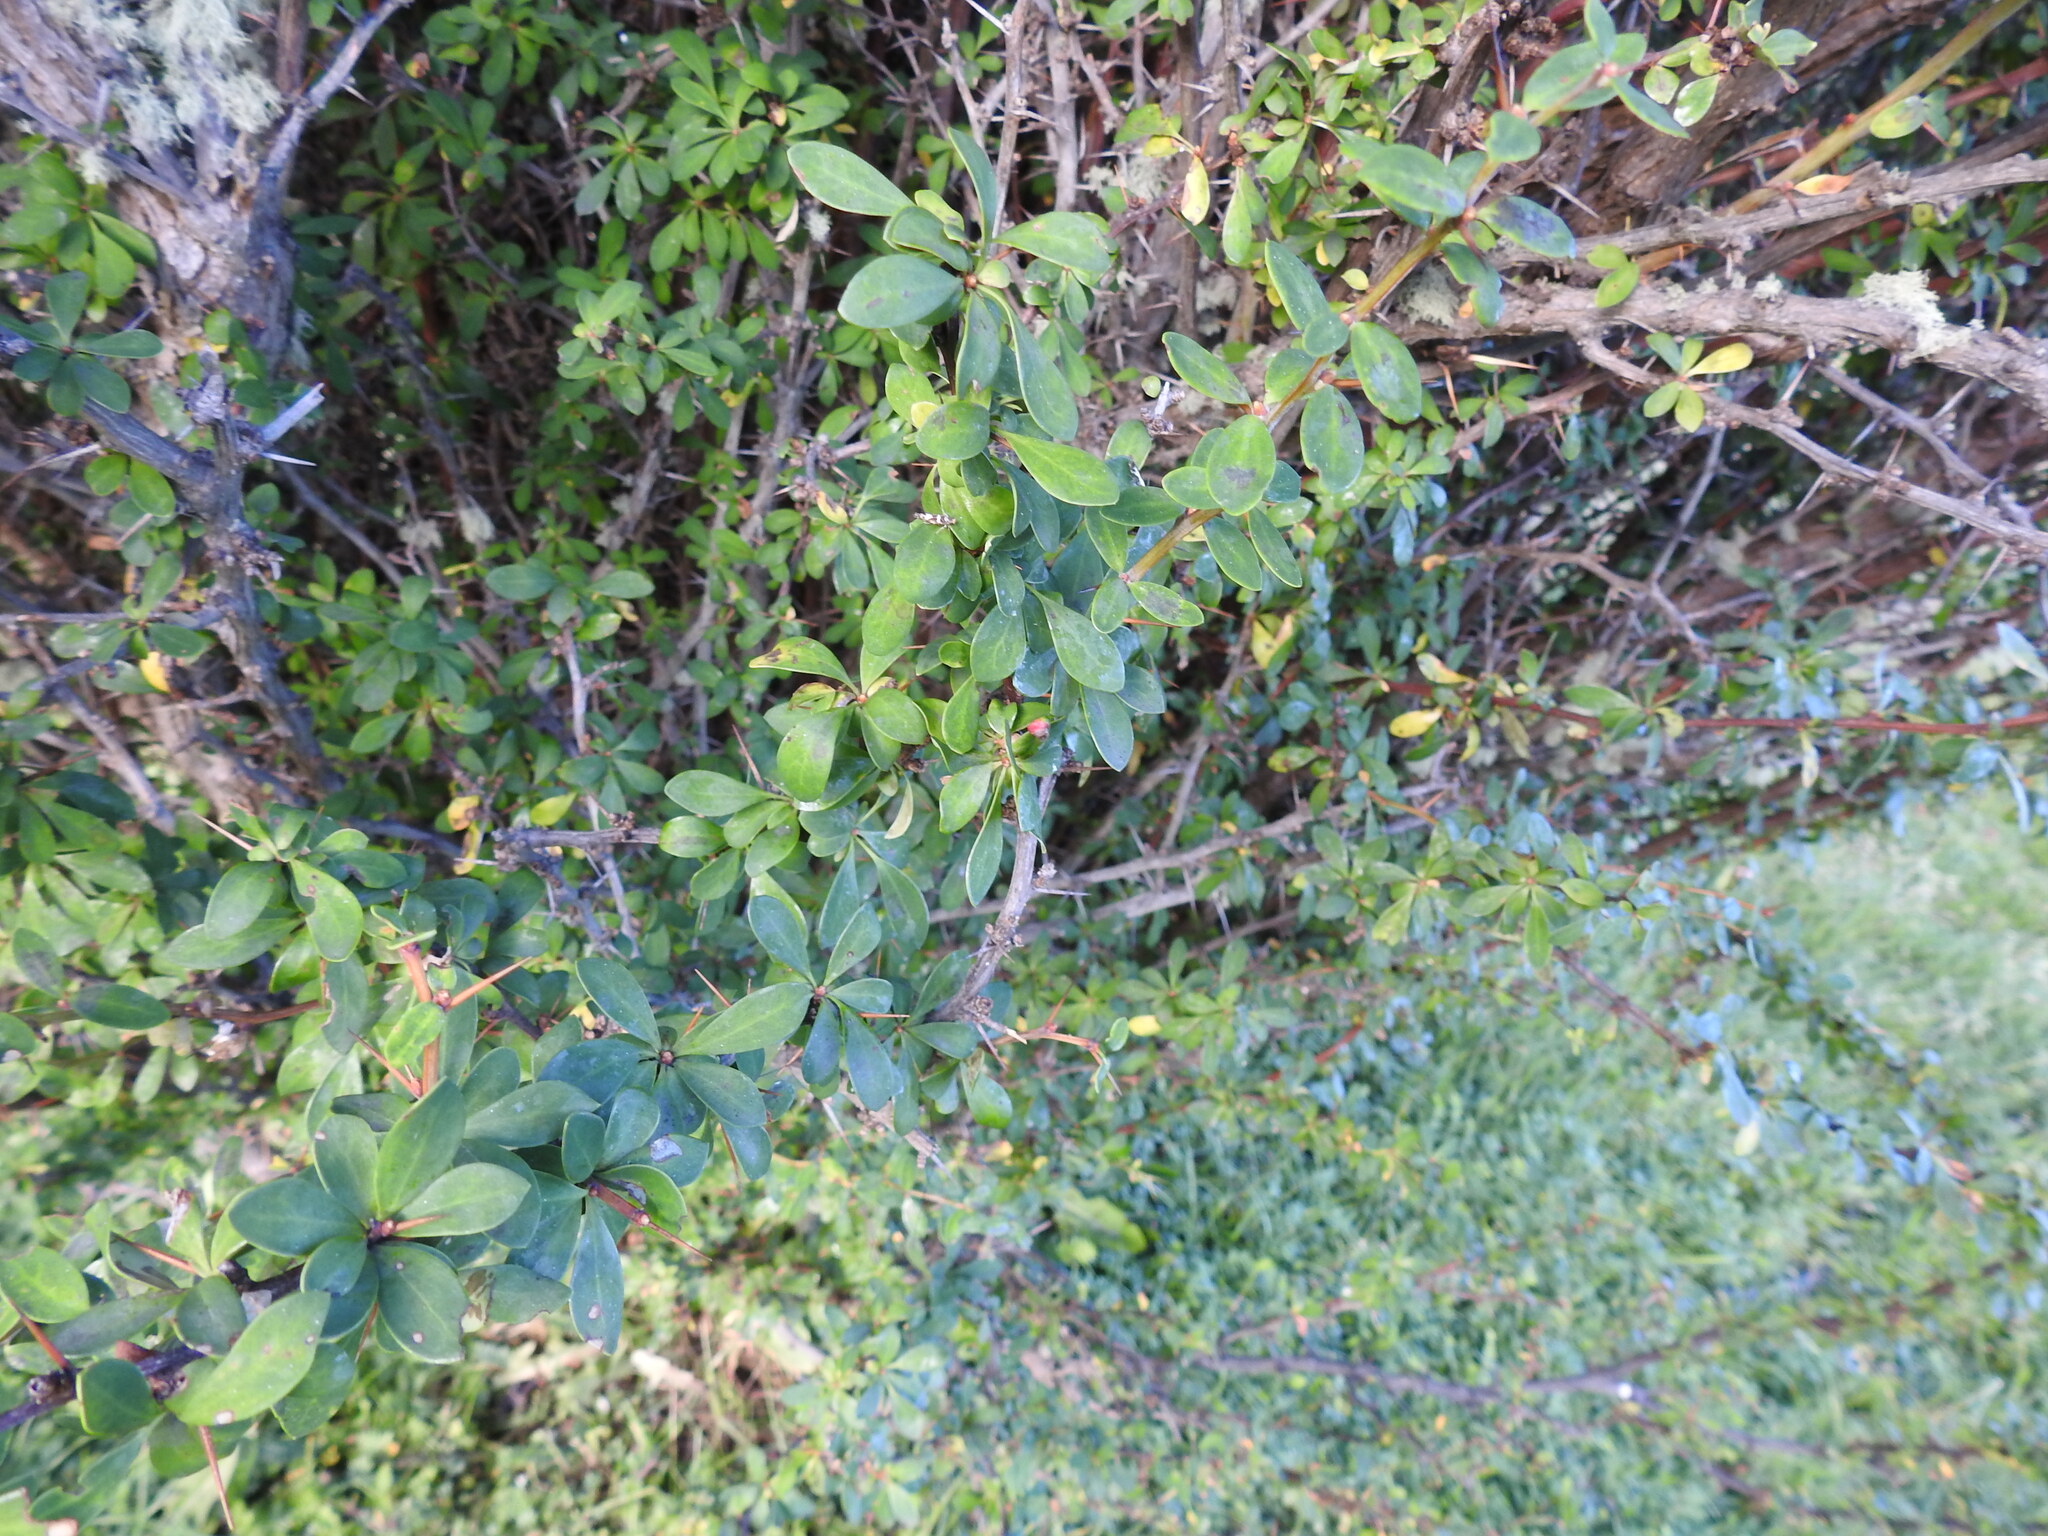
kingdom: Plantae
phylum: Tracheophyta
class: Magnoliopsida
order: Ranunculales
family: Berberidaceae
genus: Berberis
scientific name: Berberis microphylla
